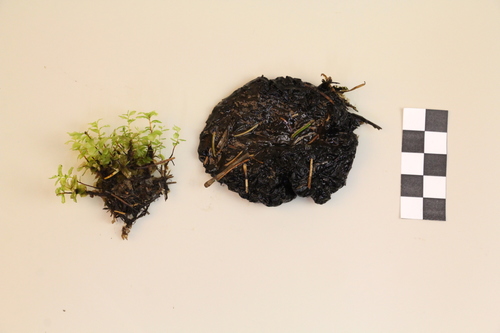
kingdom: Fungi
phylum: Ascomycota
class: Pezizomycetes
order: Pezizales
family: Sarcosomataceae
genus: Sarcosoma
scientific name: Sarcosoma globosum
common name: Charred-pancake cup
